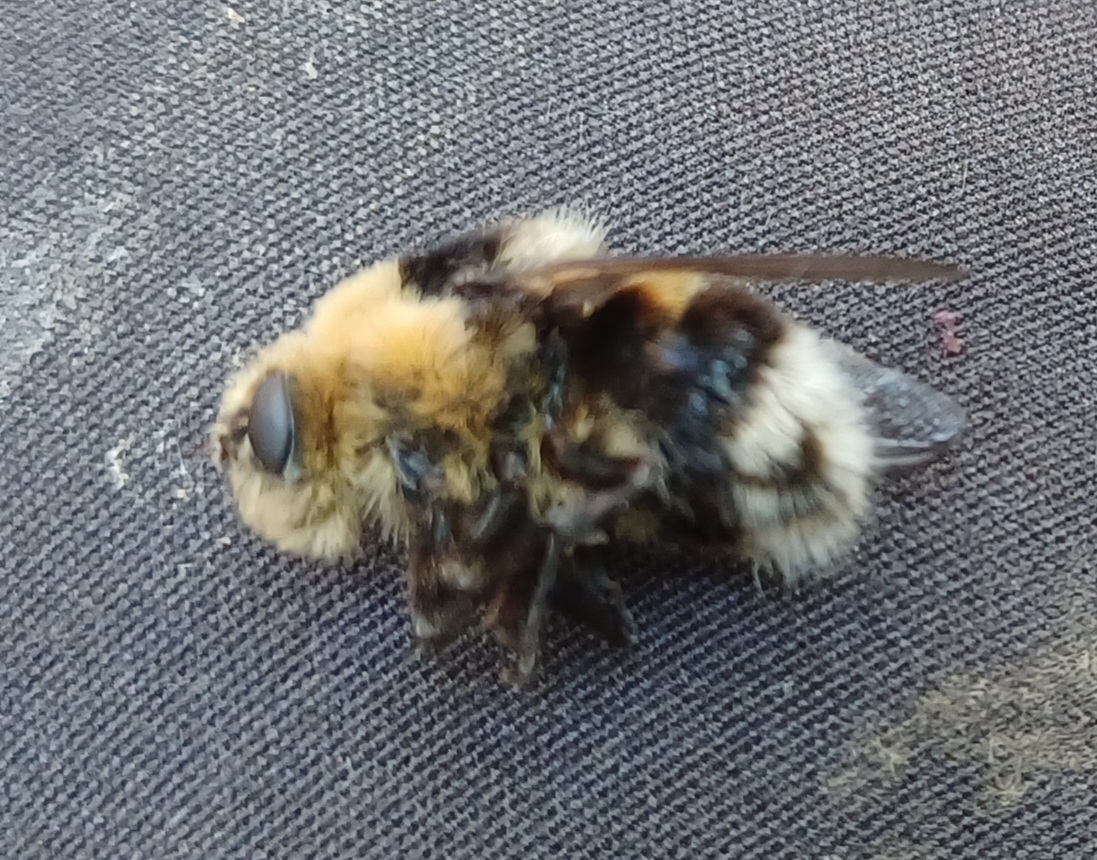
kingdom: Animalia
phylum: Arthropoda
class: Insecta
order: Diptera
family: Oestridae
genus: Cephenemyia
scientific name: Cephenemyia ulrichii
